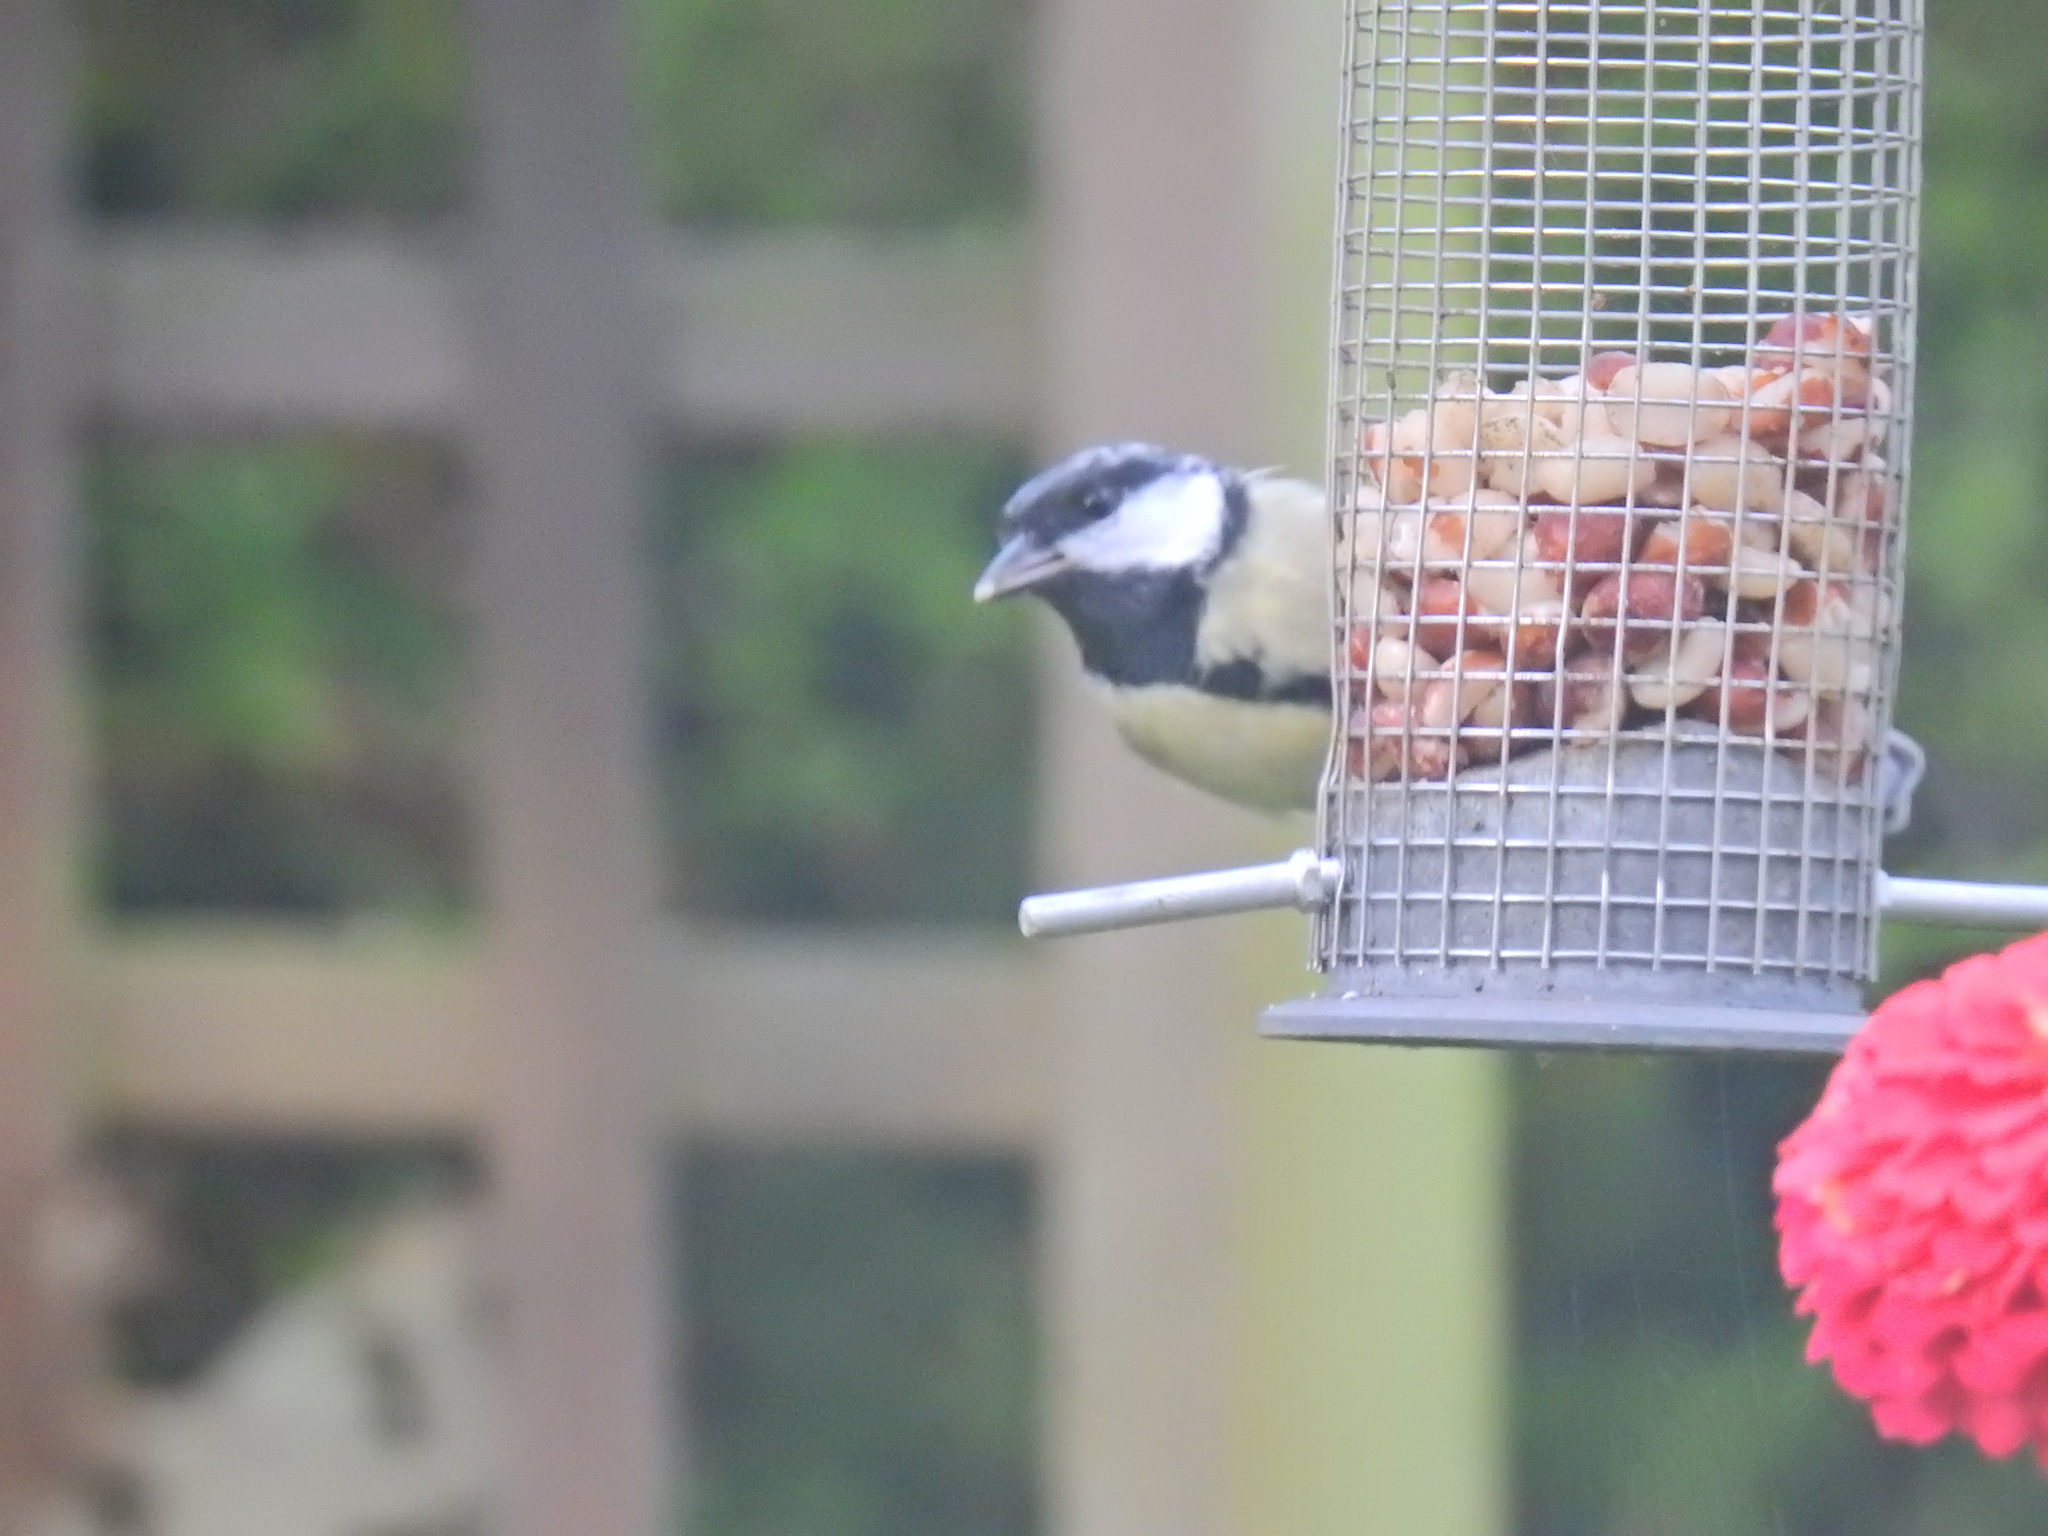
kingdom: Animalia
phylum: Chordata
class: Aves
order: Passeriformes
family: Paridae
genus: Parus
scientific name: Parus major
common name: Great tit
